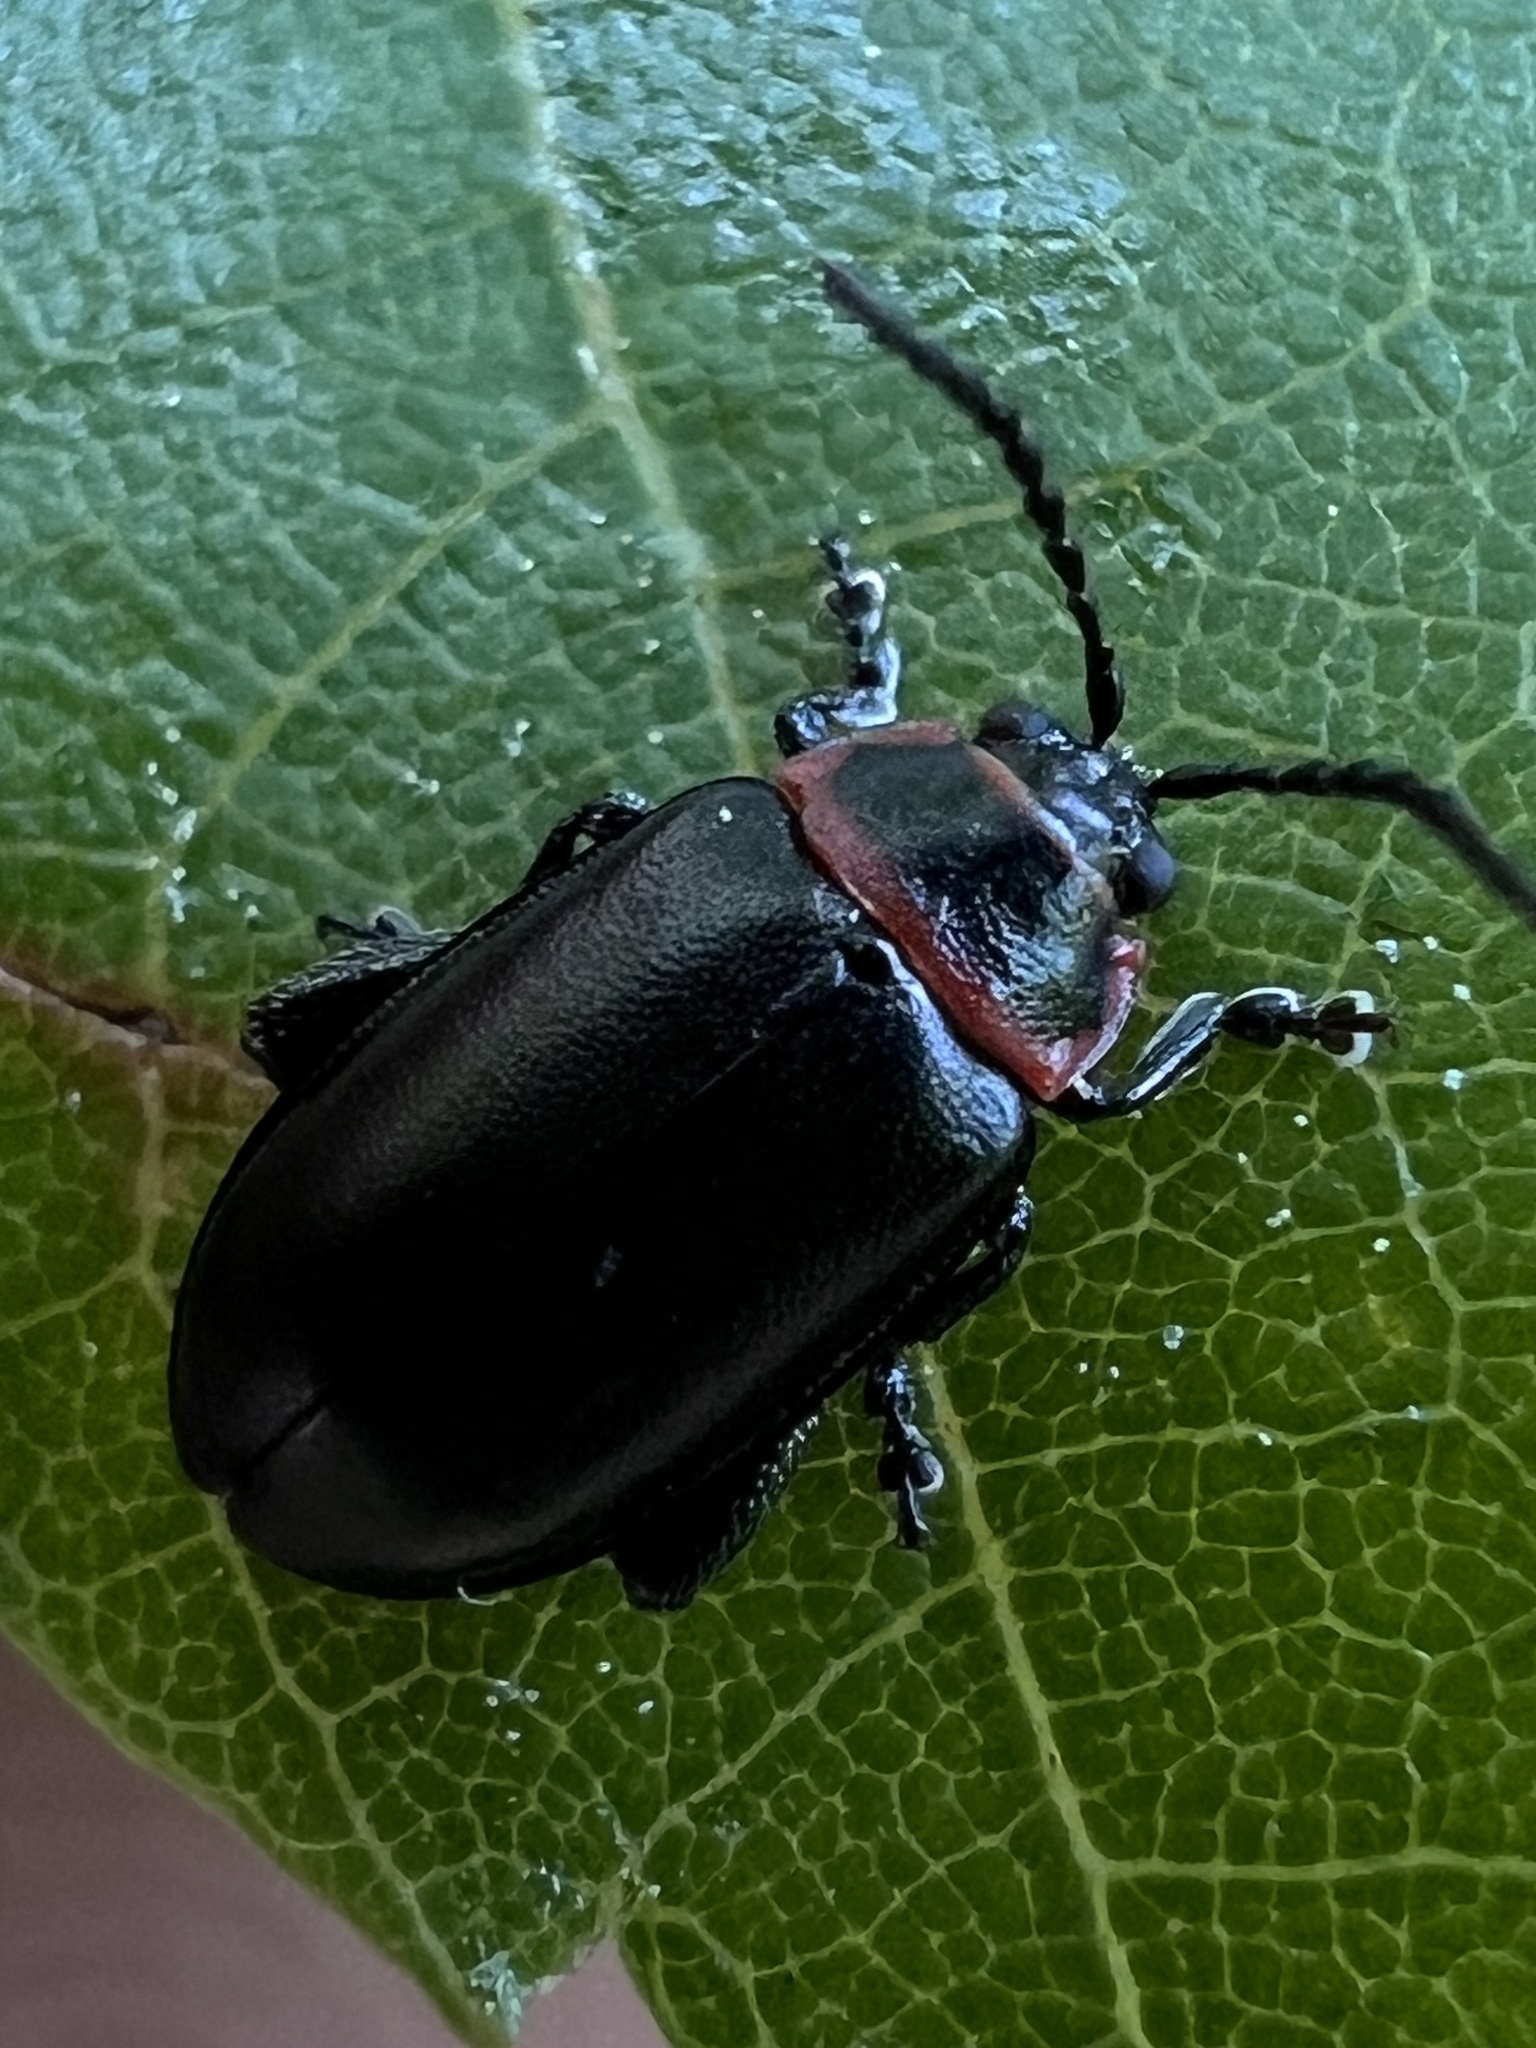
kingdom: Animalia
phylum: Arthropoda
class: Insecta
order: Coleoptera
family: Chrysomelidae
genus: Kuschelina
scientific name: Kuschelina vians
